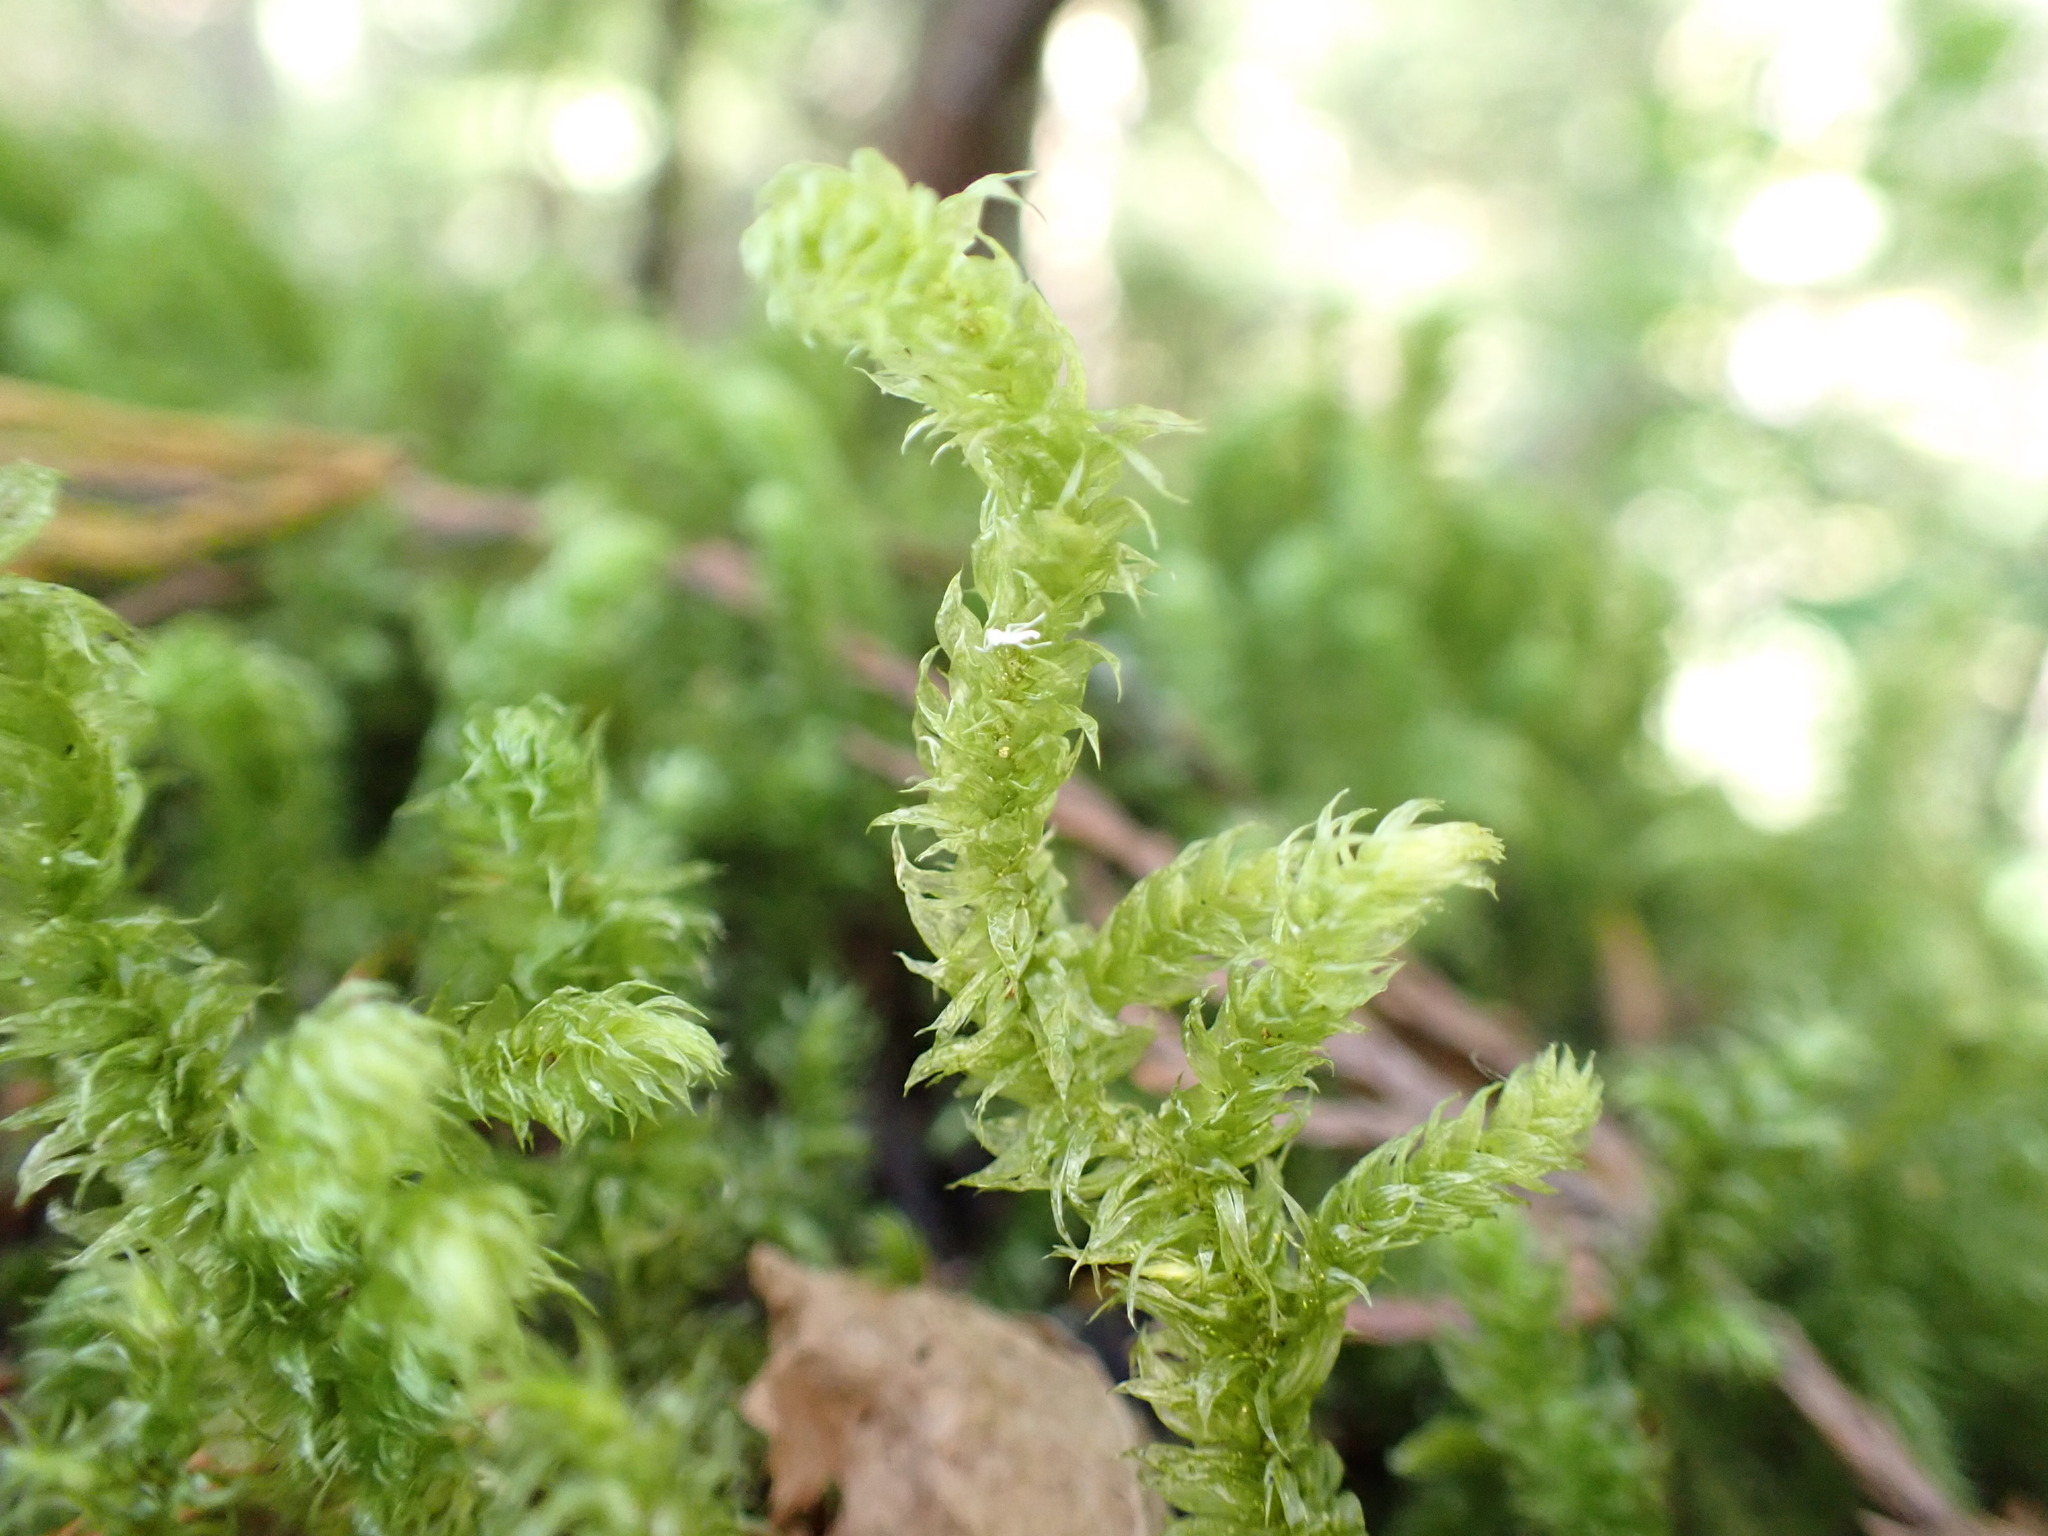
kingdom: Plantae
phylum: Bryophyta
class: Bryopsida
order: Hypnales
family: Hylocomiaceae
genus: Rhytidiopsis
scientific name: Rhytidiopsis robusta
